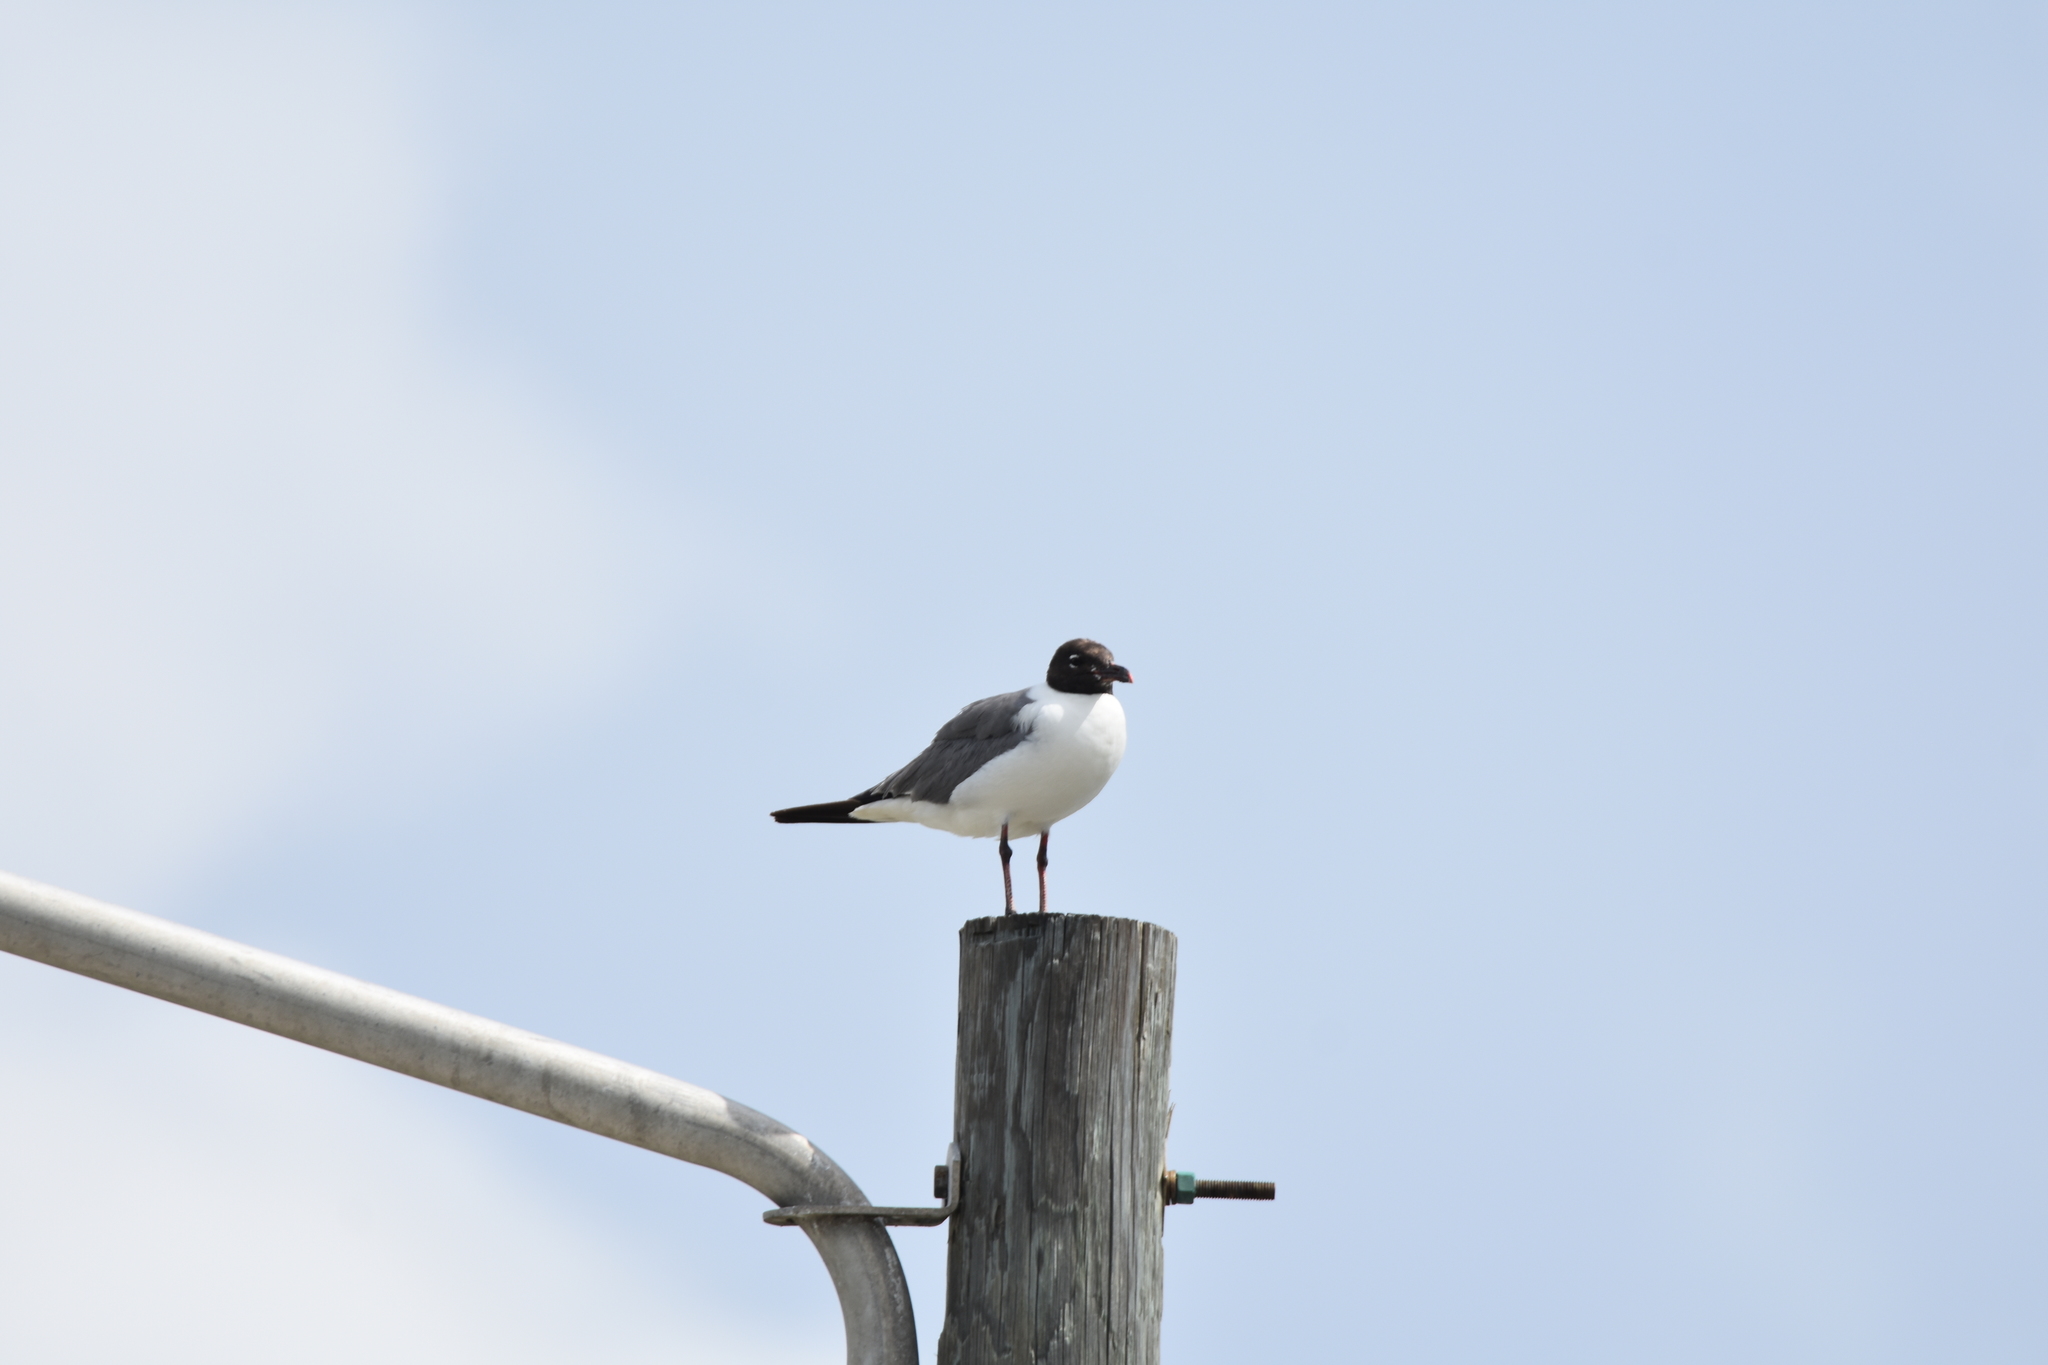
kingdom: Animalia
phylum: Chordata
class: Aves
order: Charadriiformes
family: Laridae
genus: Leucophaeus
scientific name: Leucophaeus atricilla
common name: Laughing gull
